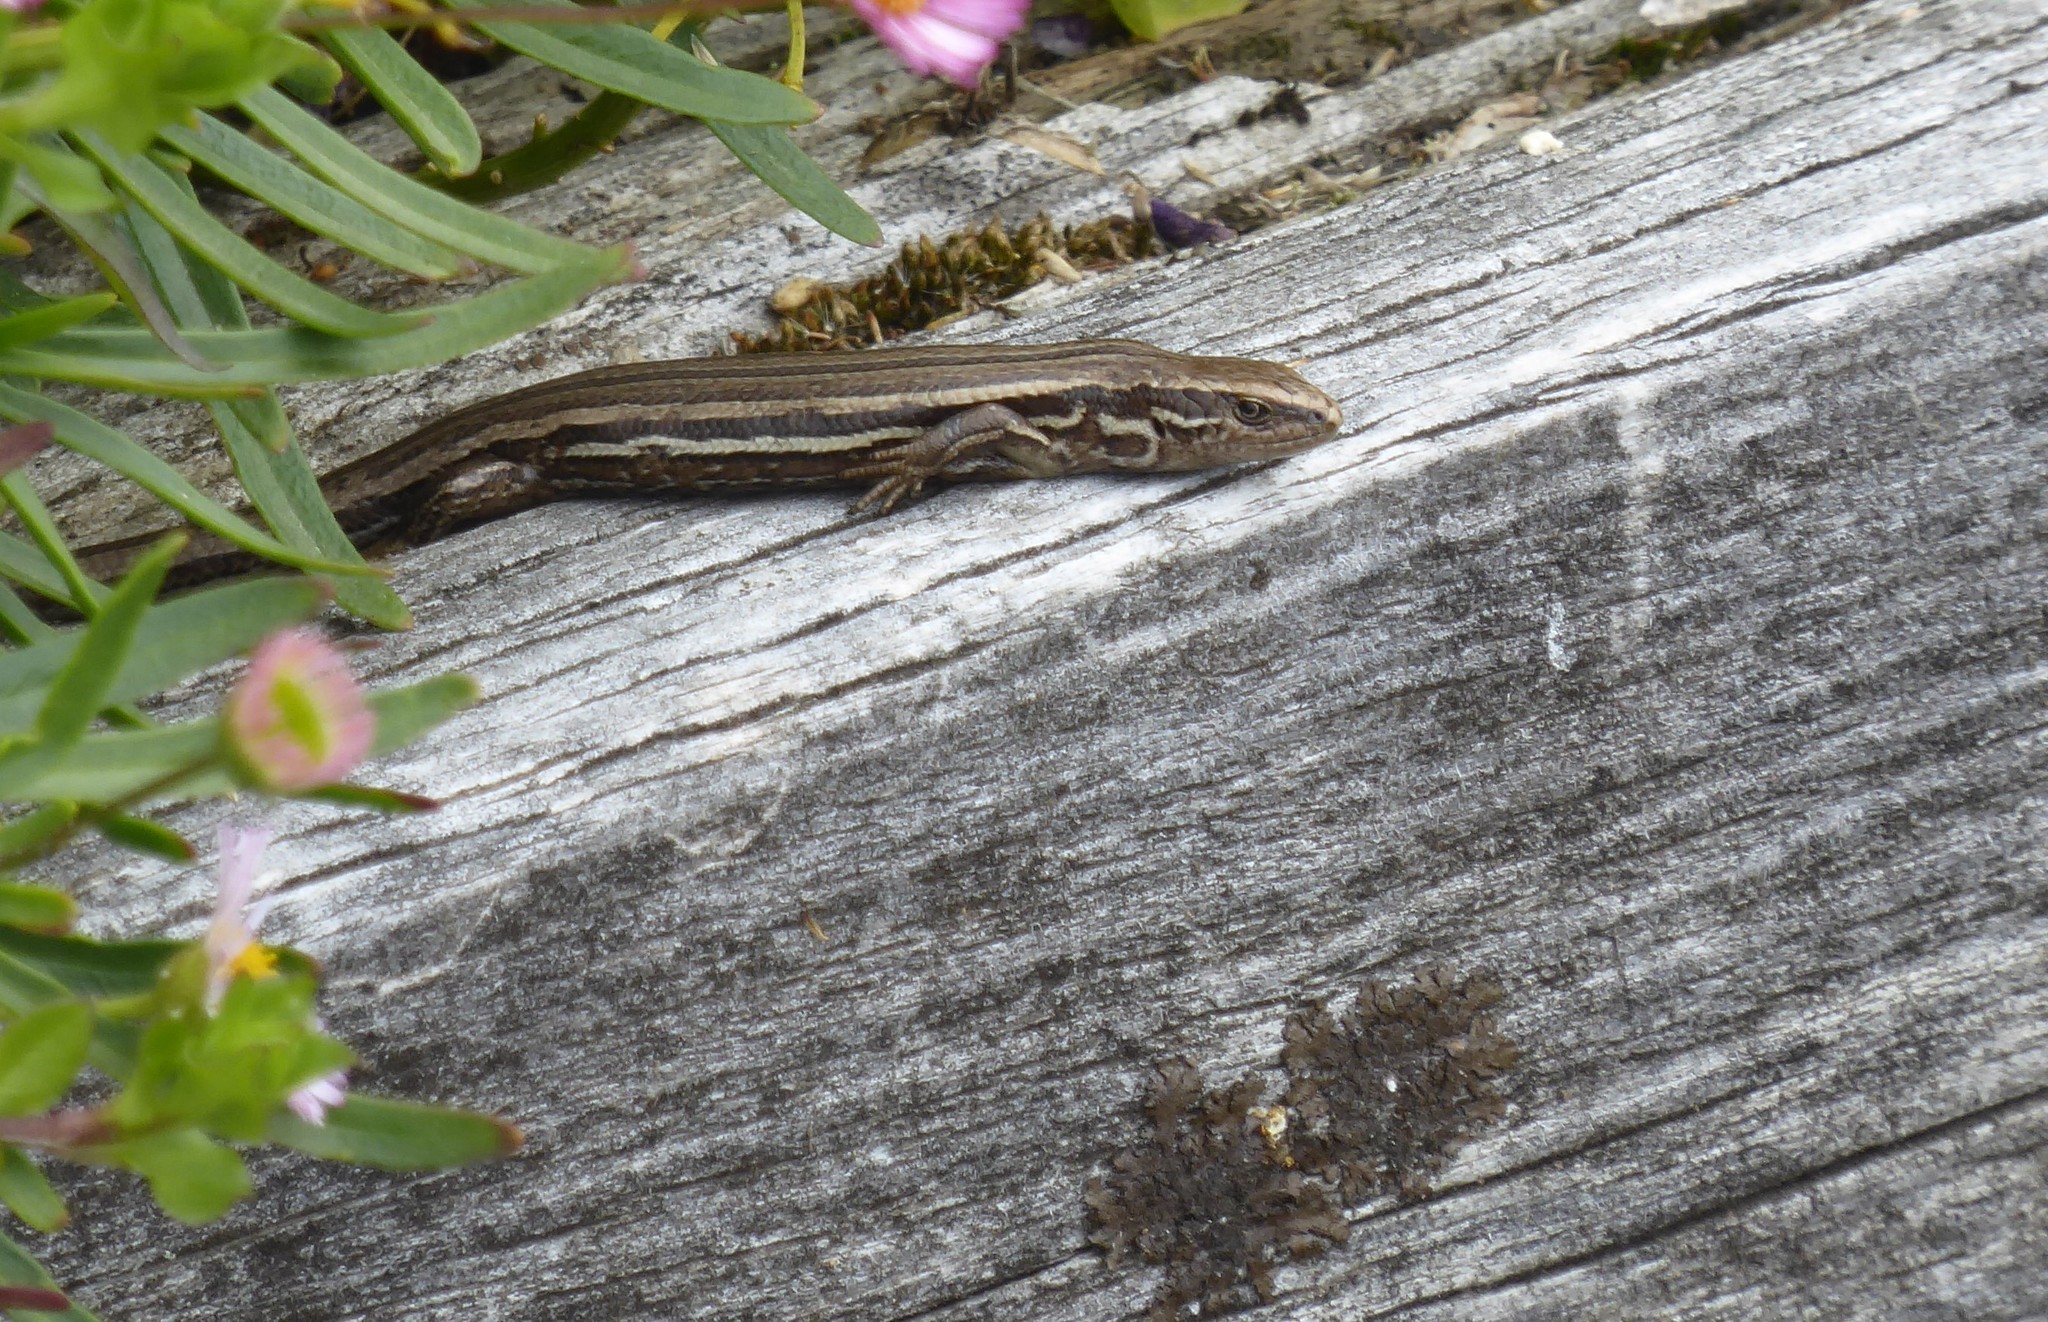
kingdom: Animalia
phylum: Chordata
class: Squamata
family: Scincidae
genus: Oligosoma
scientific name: Oligosoma polychroma
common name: Common new zealand skink
